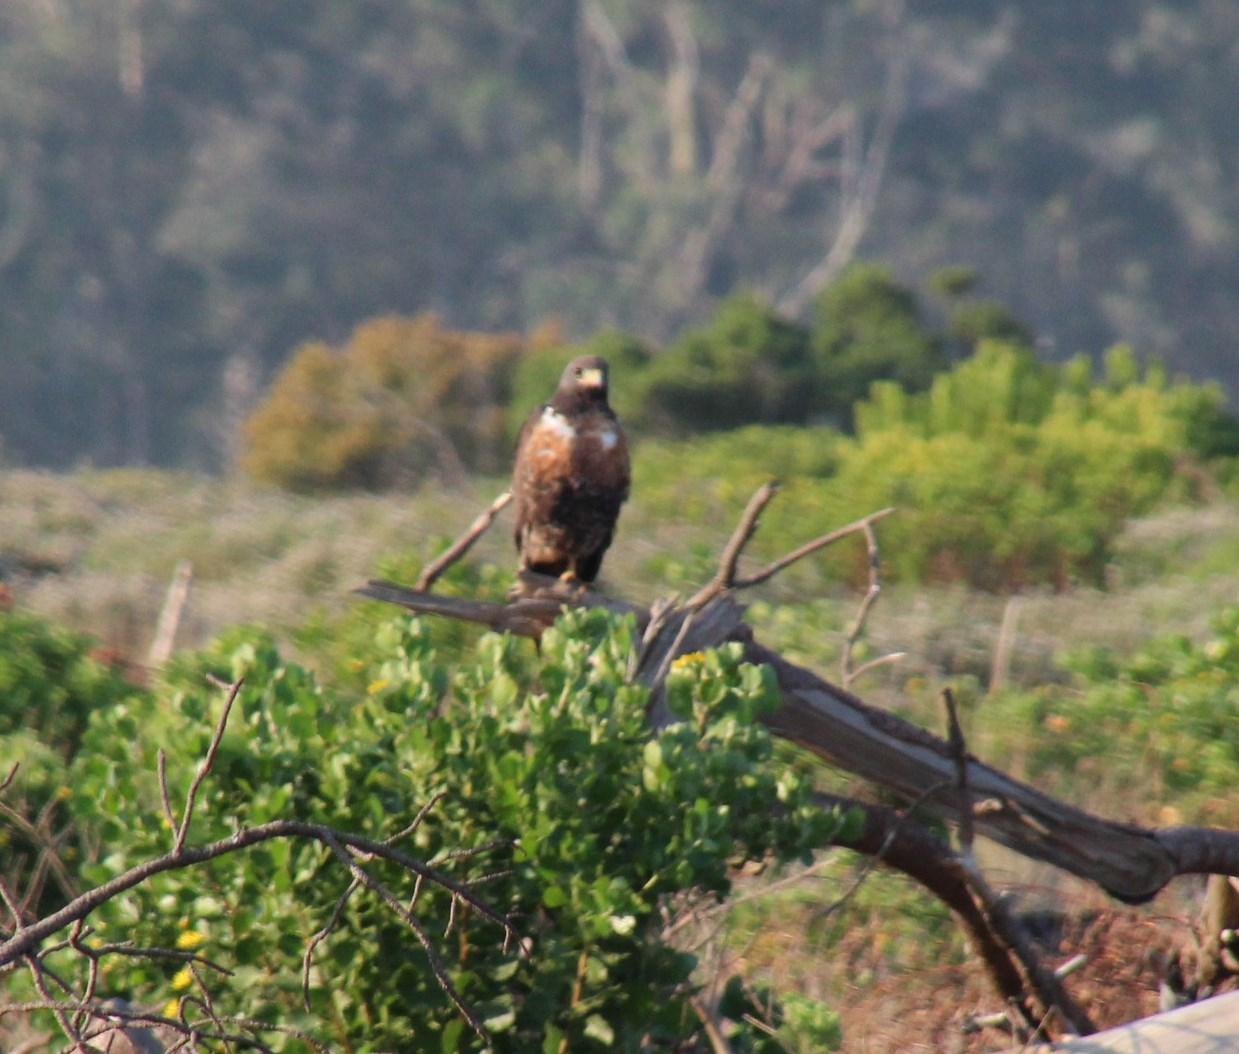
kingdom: Animalia
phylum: Chordata
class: Aves
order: Accipitriformes
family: Accipitridae
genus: Buteo
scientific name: Buteo rufofuscus
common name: Jackal buzzard
